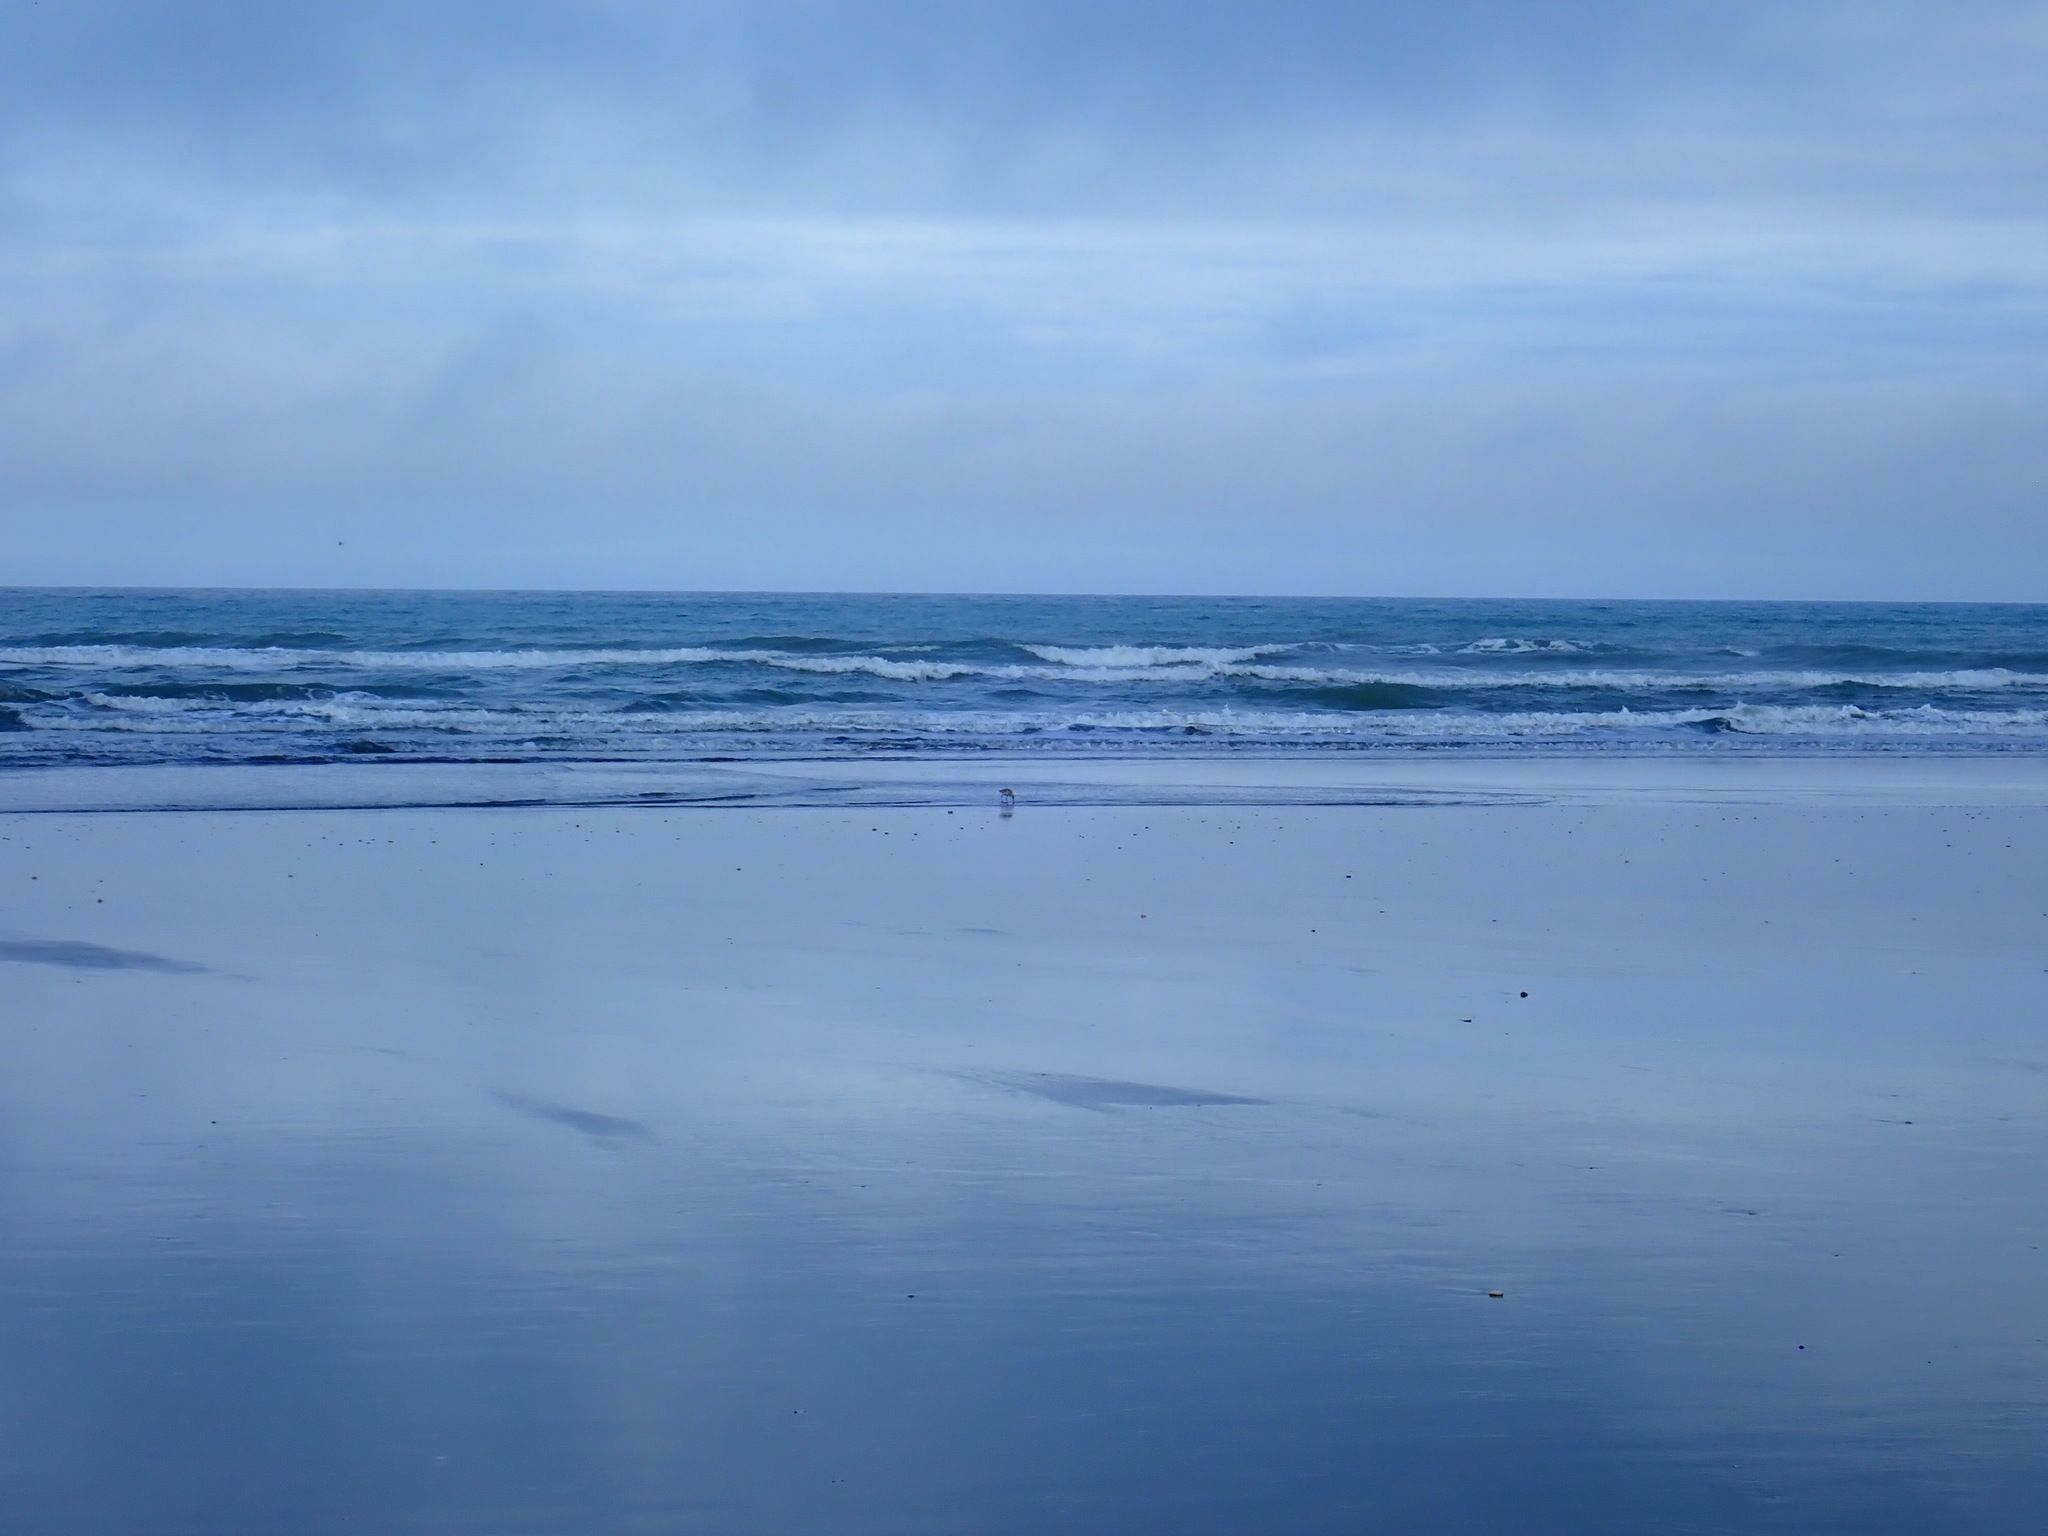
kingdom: Animalia
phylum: Chordata
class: Aves
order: Charadriiformes
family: Scolopacidae
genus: Limosa
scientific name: Limosa lapponica
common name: Bar-tailed godwit
